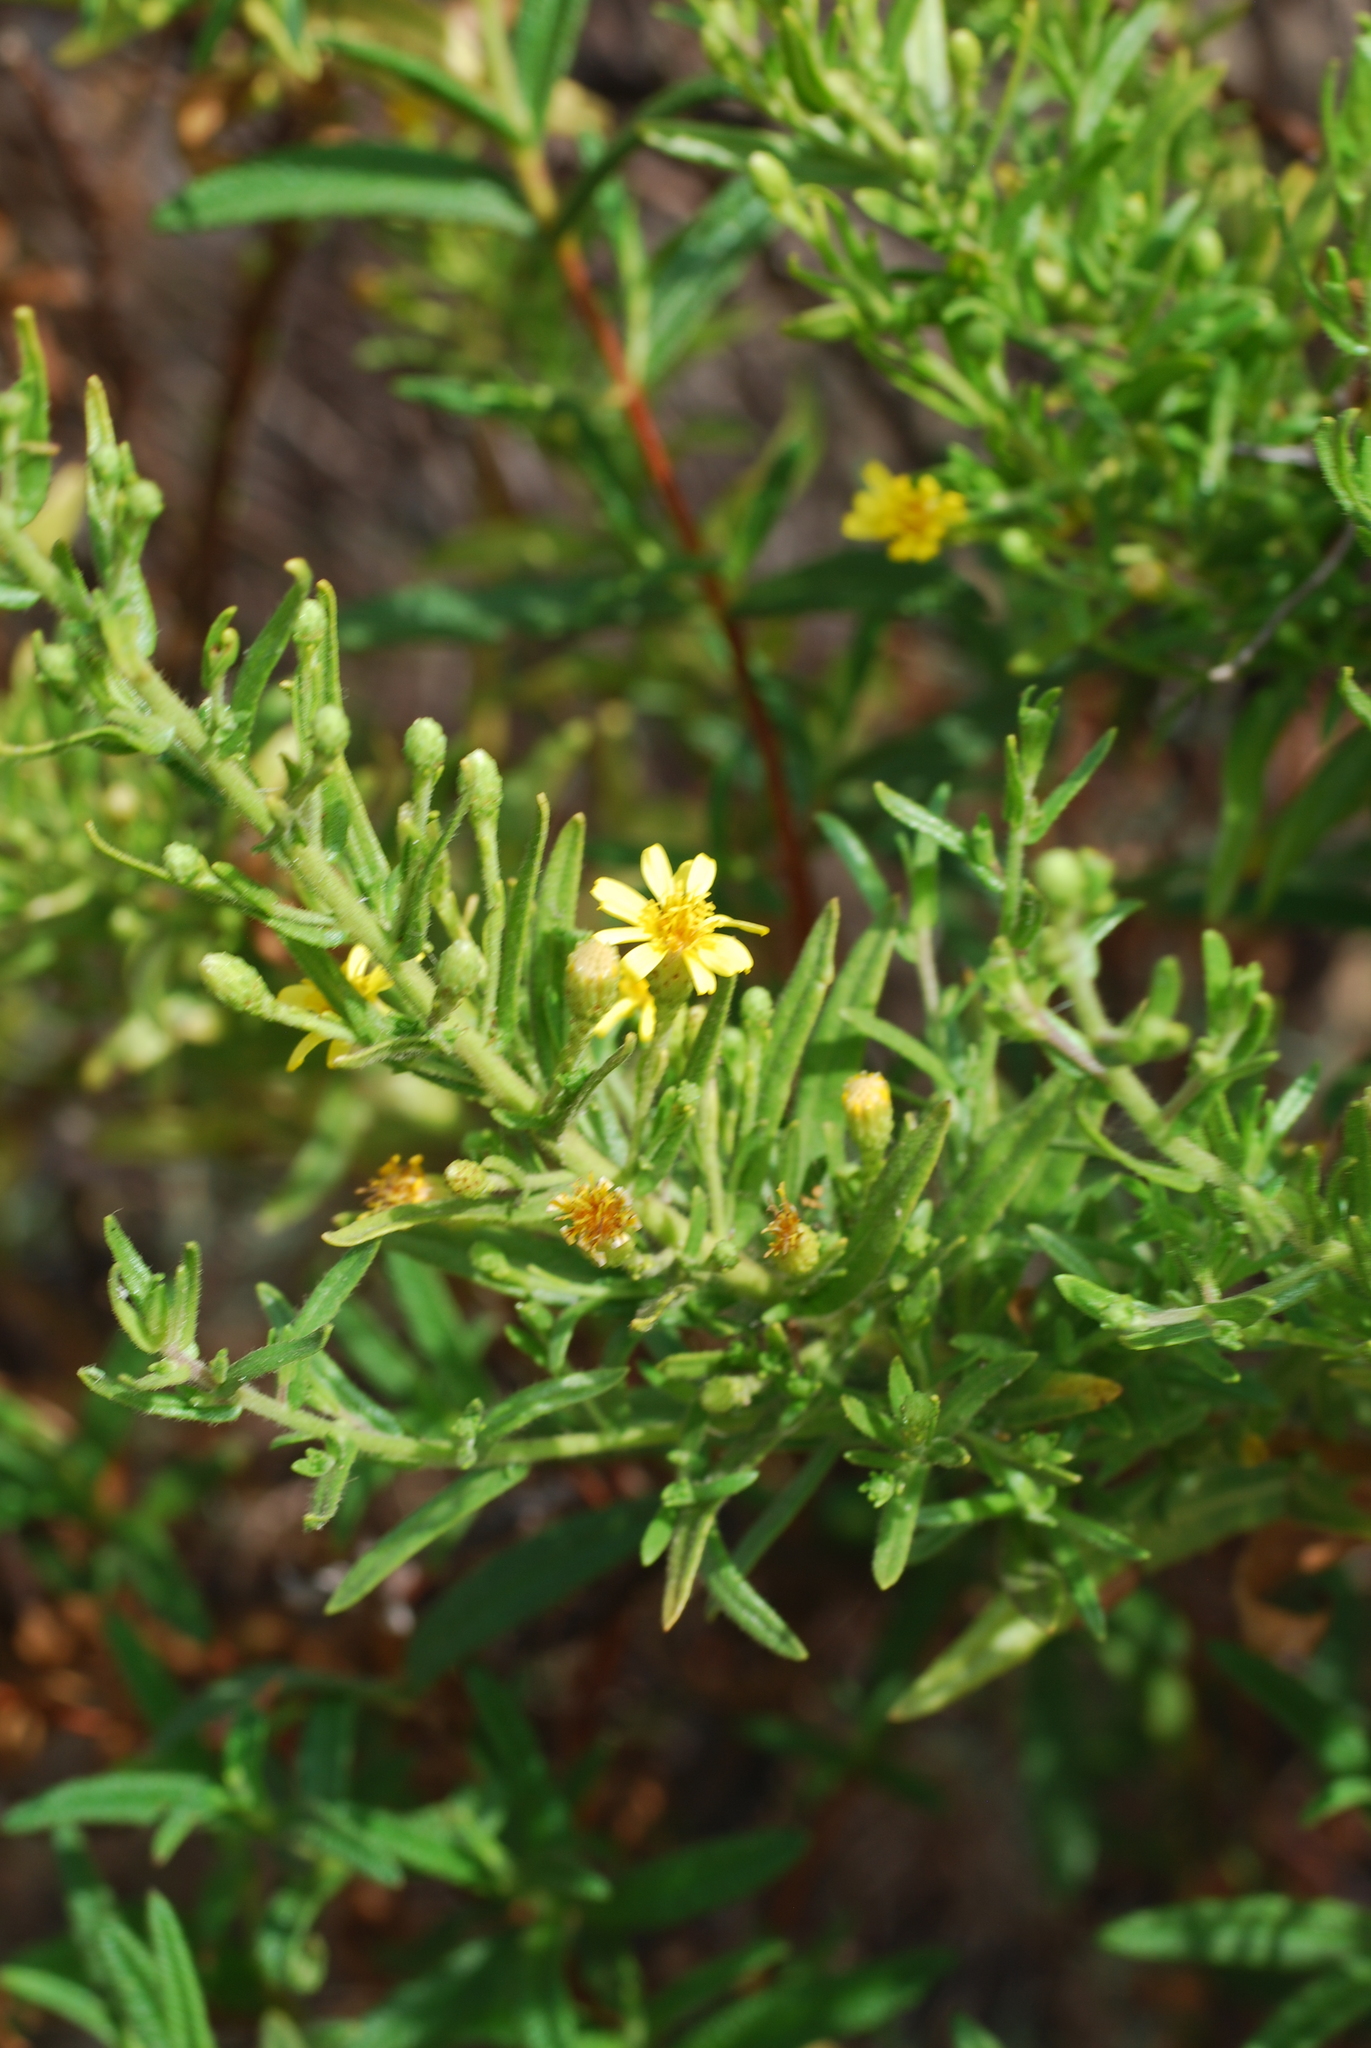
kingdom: Plantae
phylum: Tracheophyta
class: Magnoliopsida
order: Asterales
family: Asteraceae
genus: Dittrichia
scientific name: Dittrichia viscosa
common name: Woody fleabane
